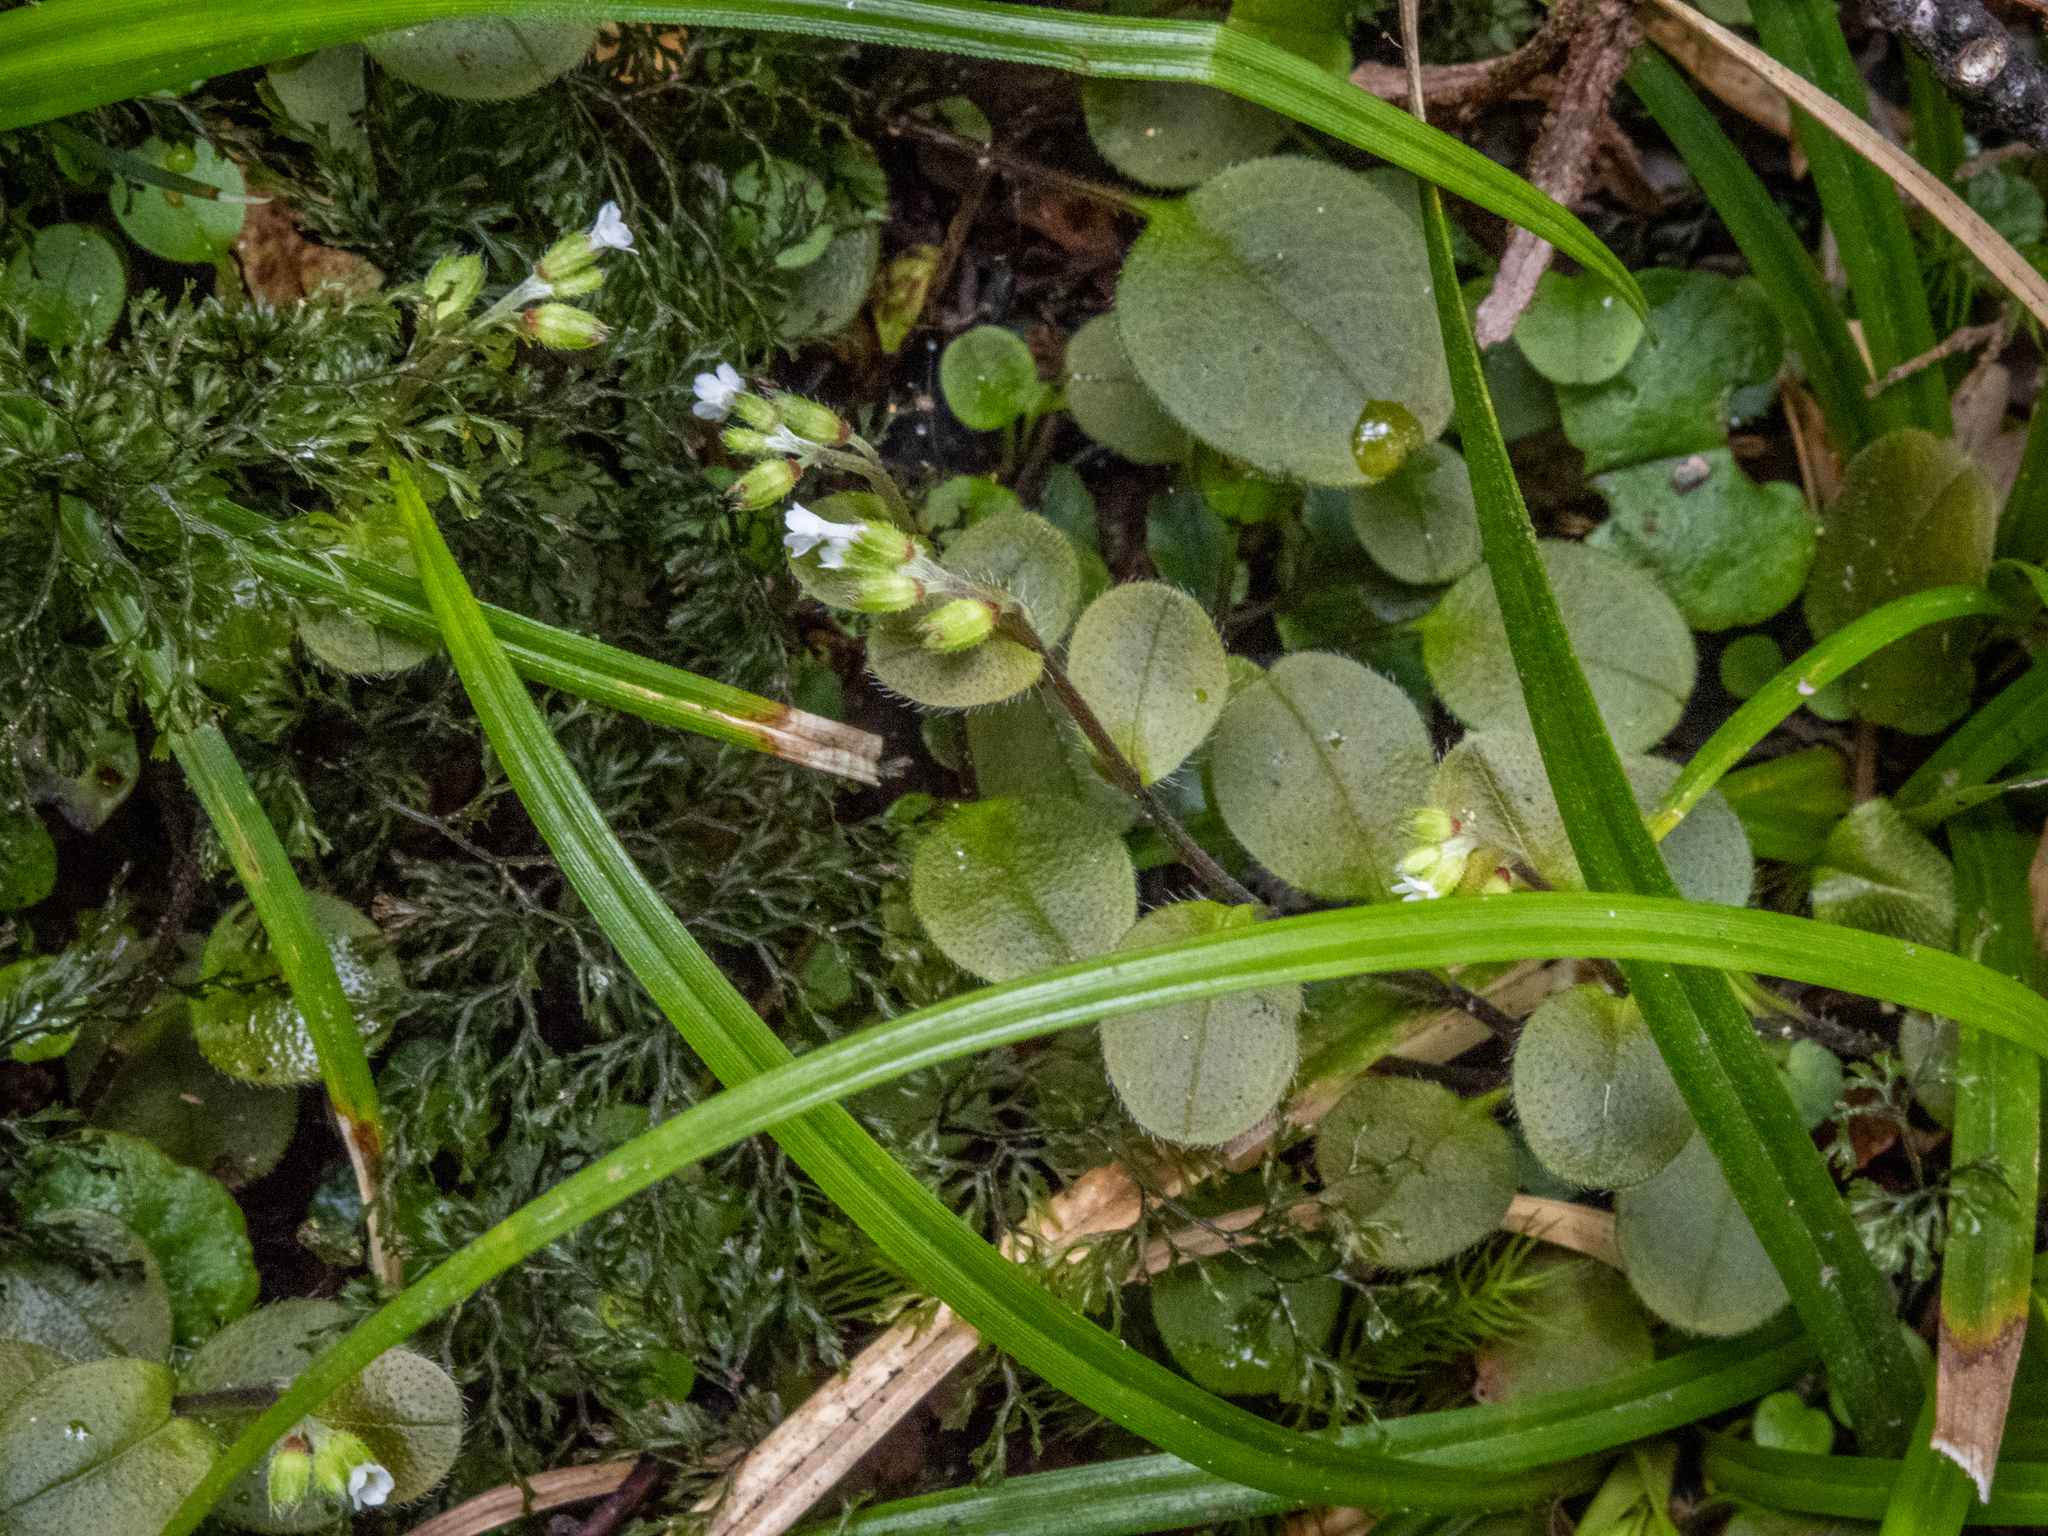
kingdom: Plantae
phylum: Tracheophyta
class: Magnoliopsida
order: Boraginales
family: Boraginaceae
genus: Myosotis
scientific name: Myosotis forsteri
